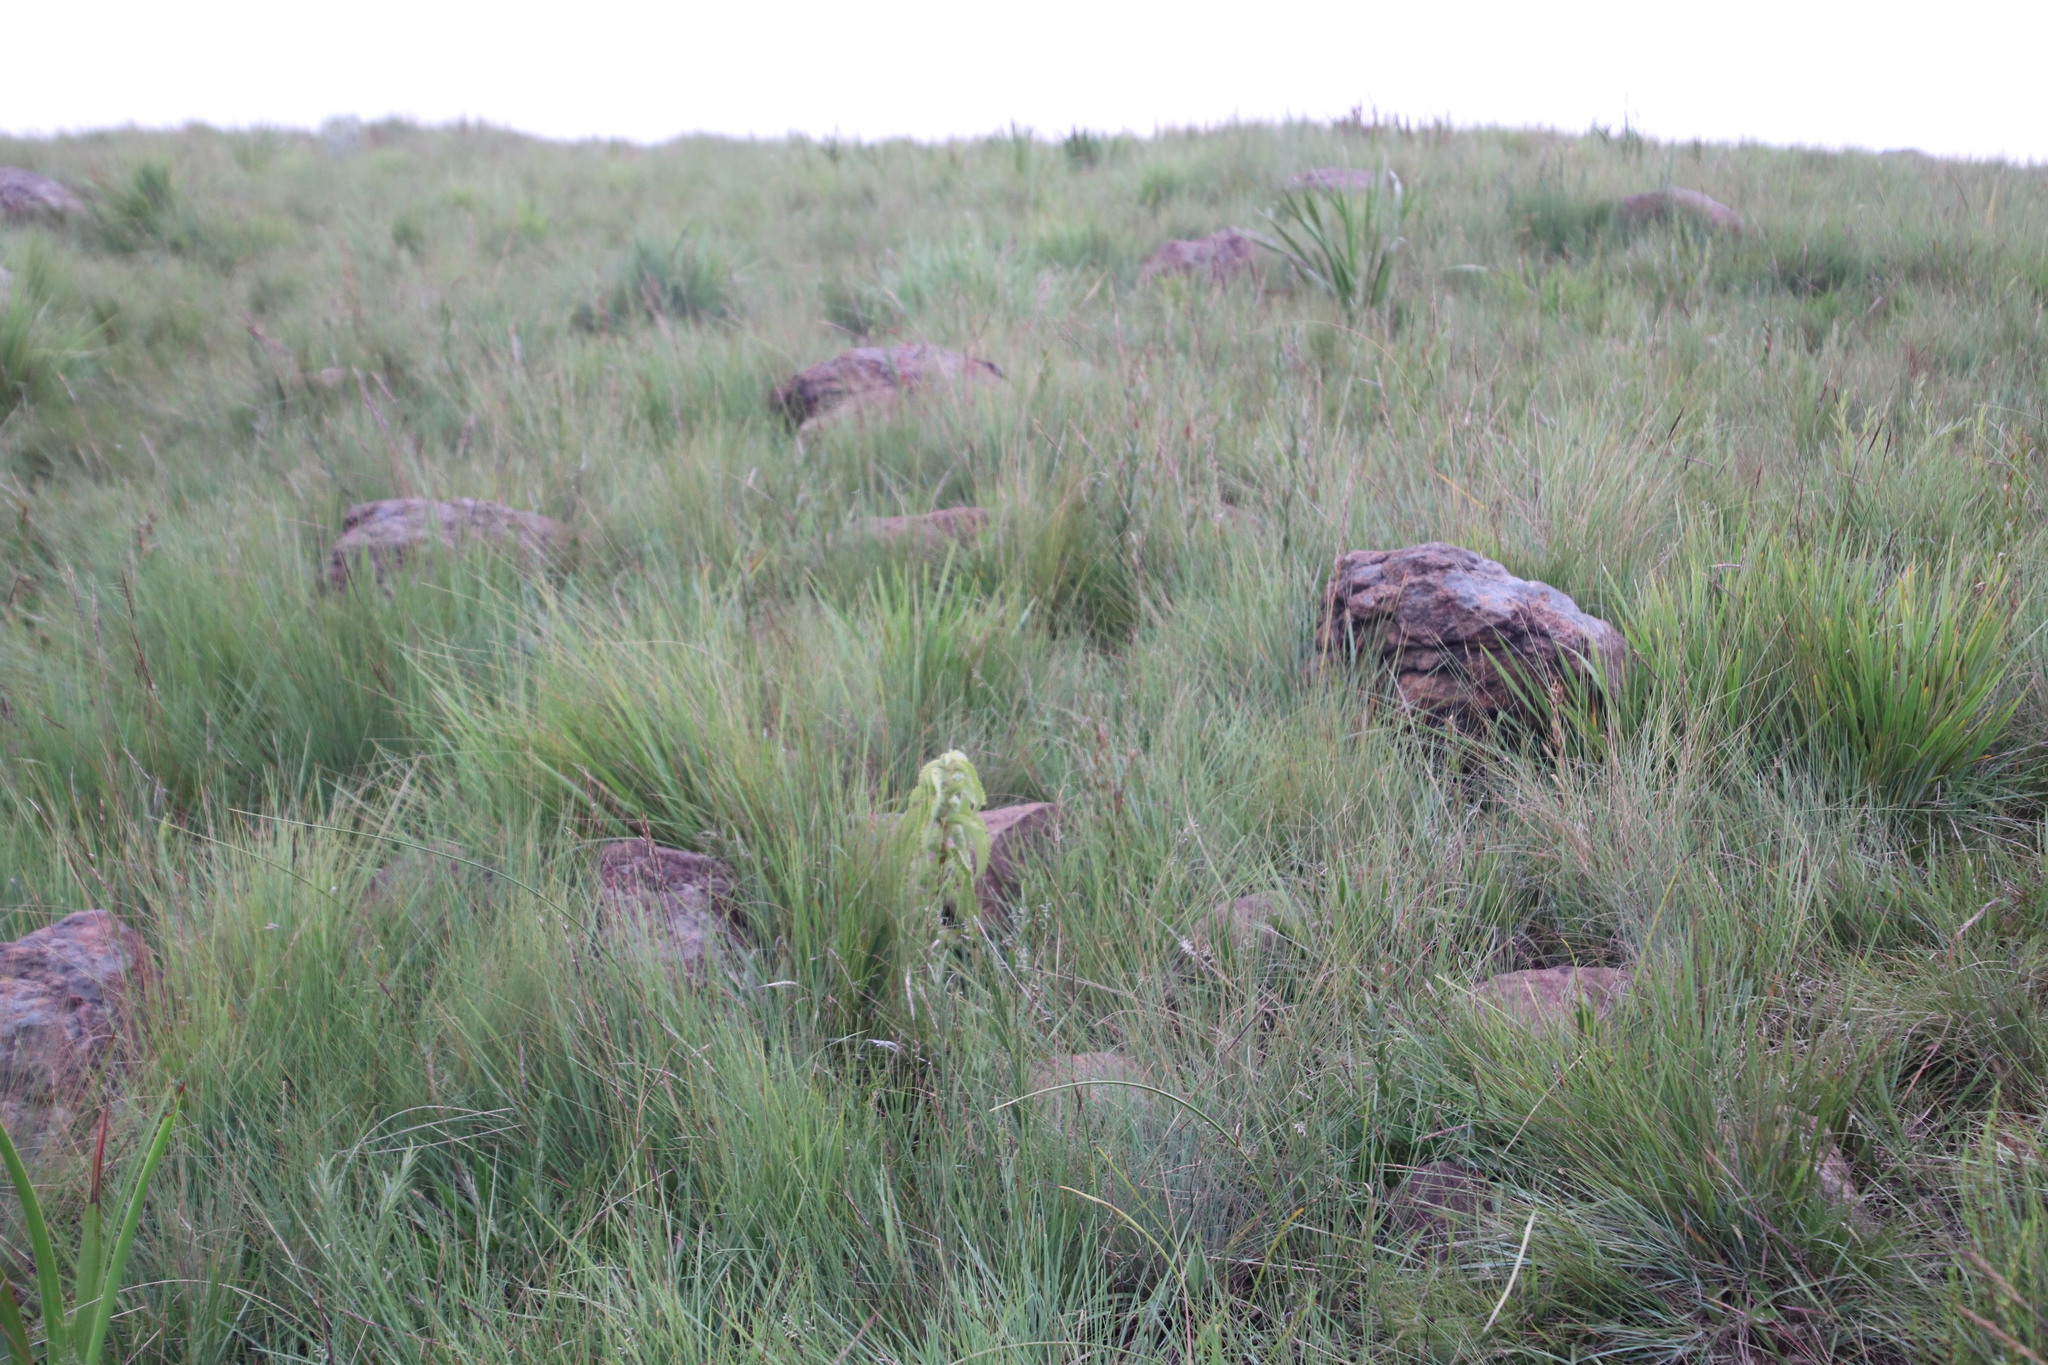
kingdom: Plantae
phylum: Tracheophyta
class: Magnoliopsida
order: Lamiales
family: Lamiaceae
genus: Coleus
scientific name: Coleus calycinus
